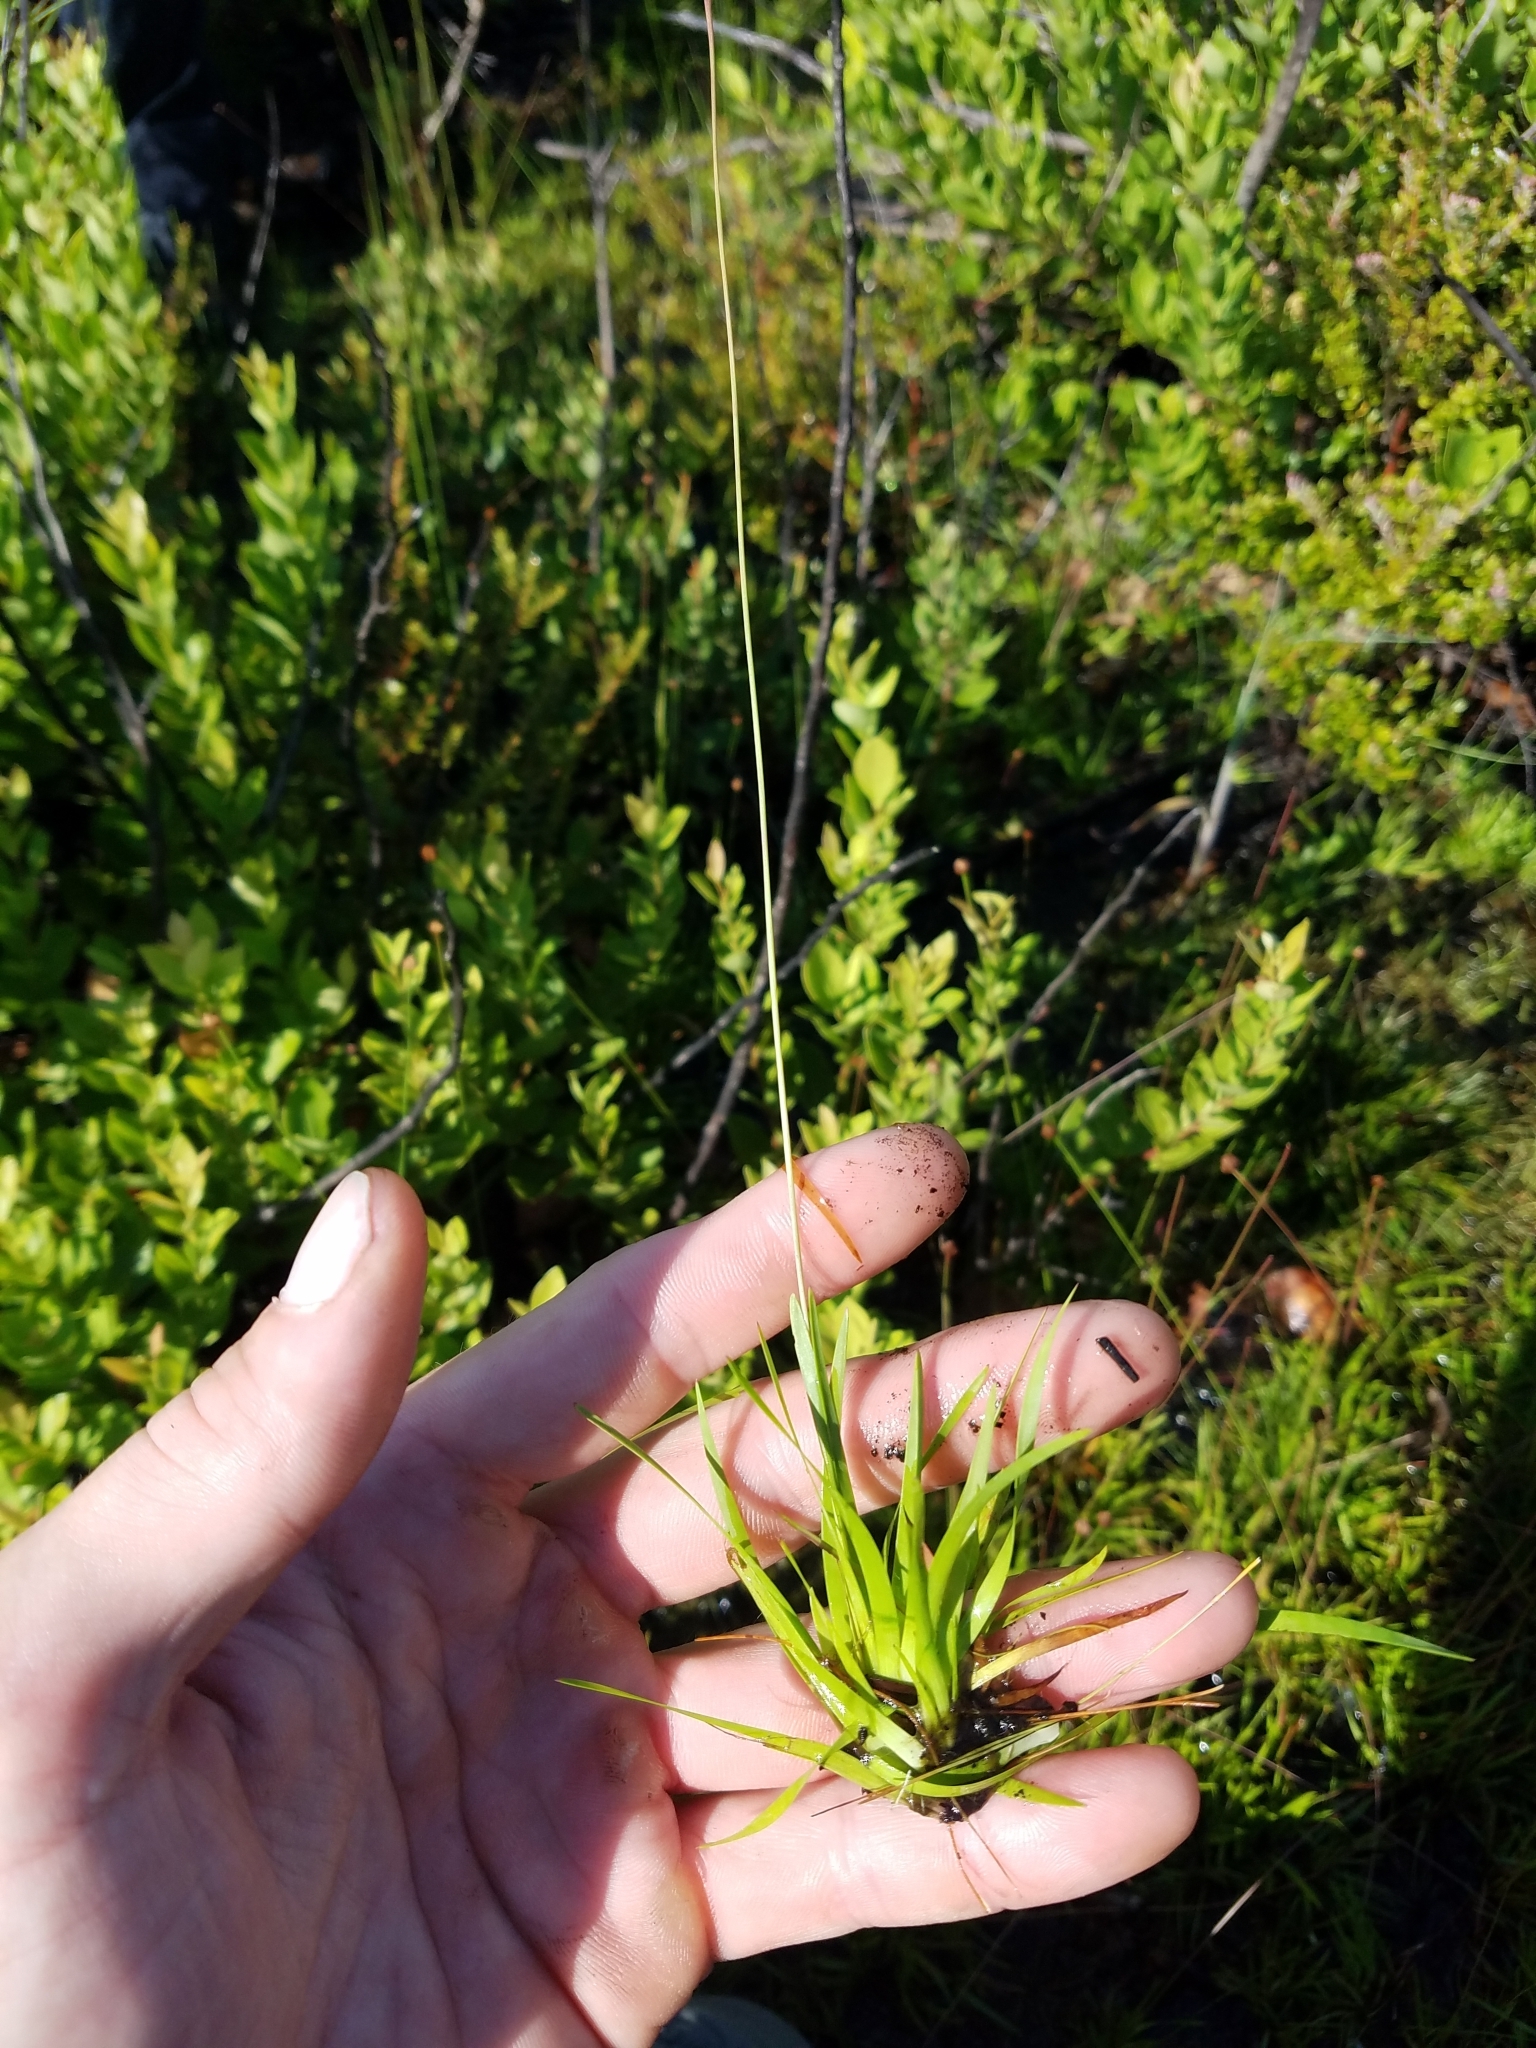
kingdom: Plantae
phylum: Tracheophyta
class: Liliopsida
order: Poales
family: Xyridaceae
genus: Xyris
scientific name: Xyris brevifolia
